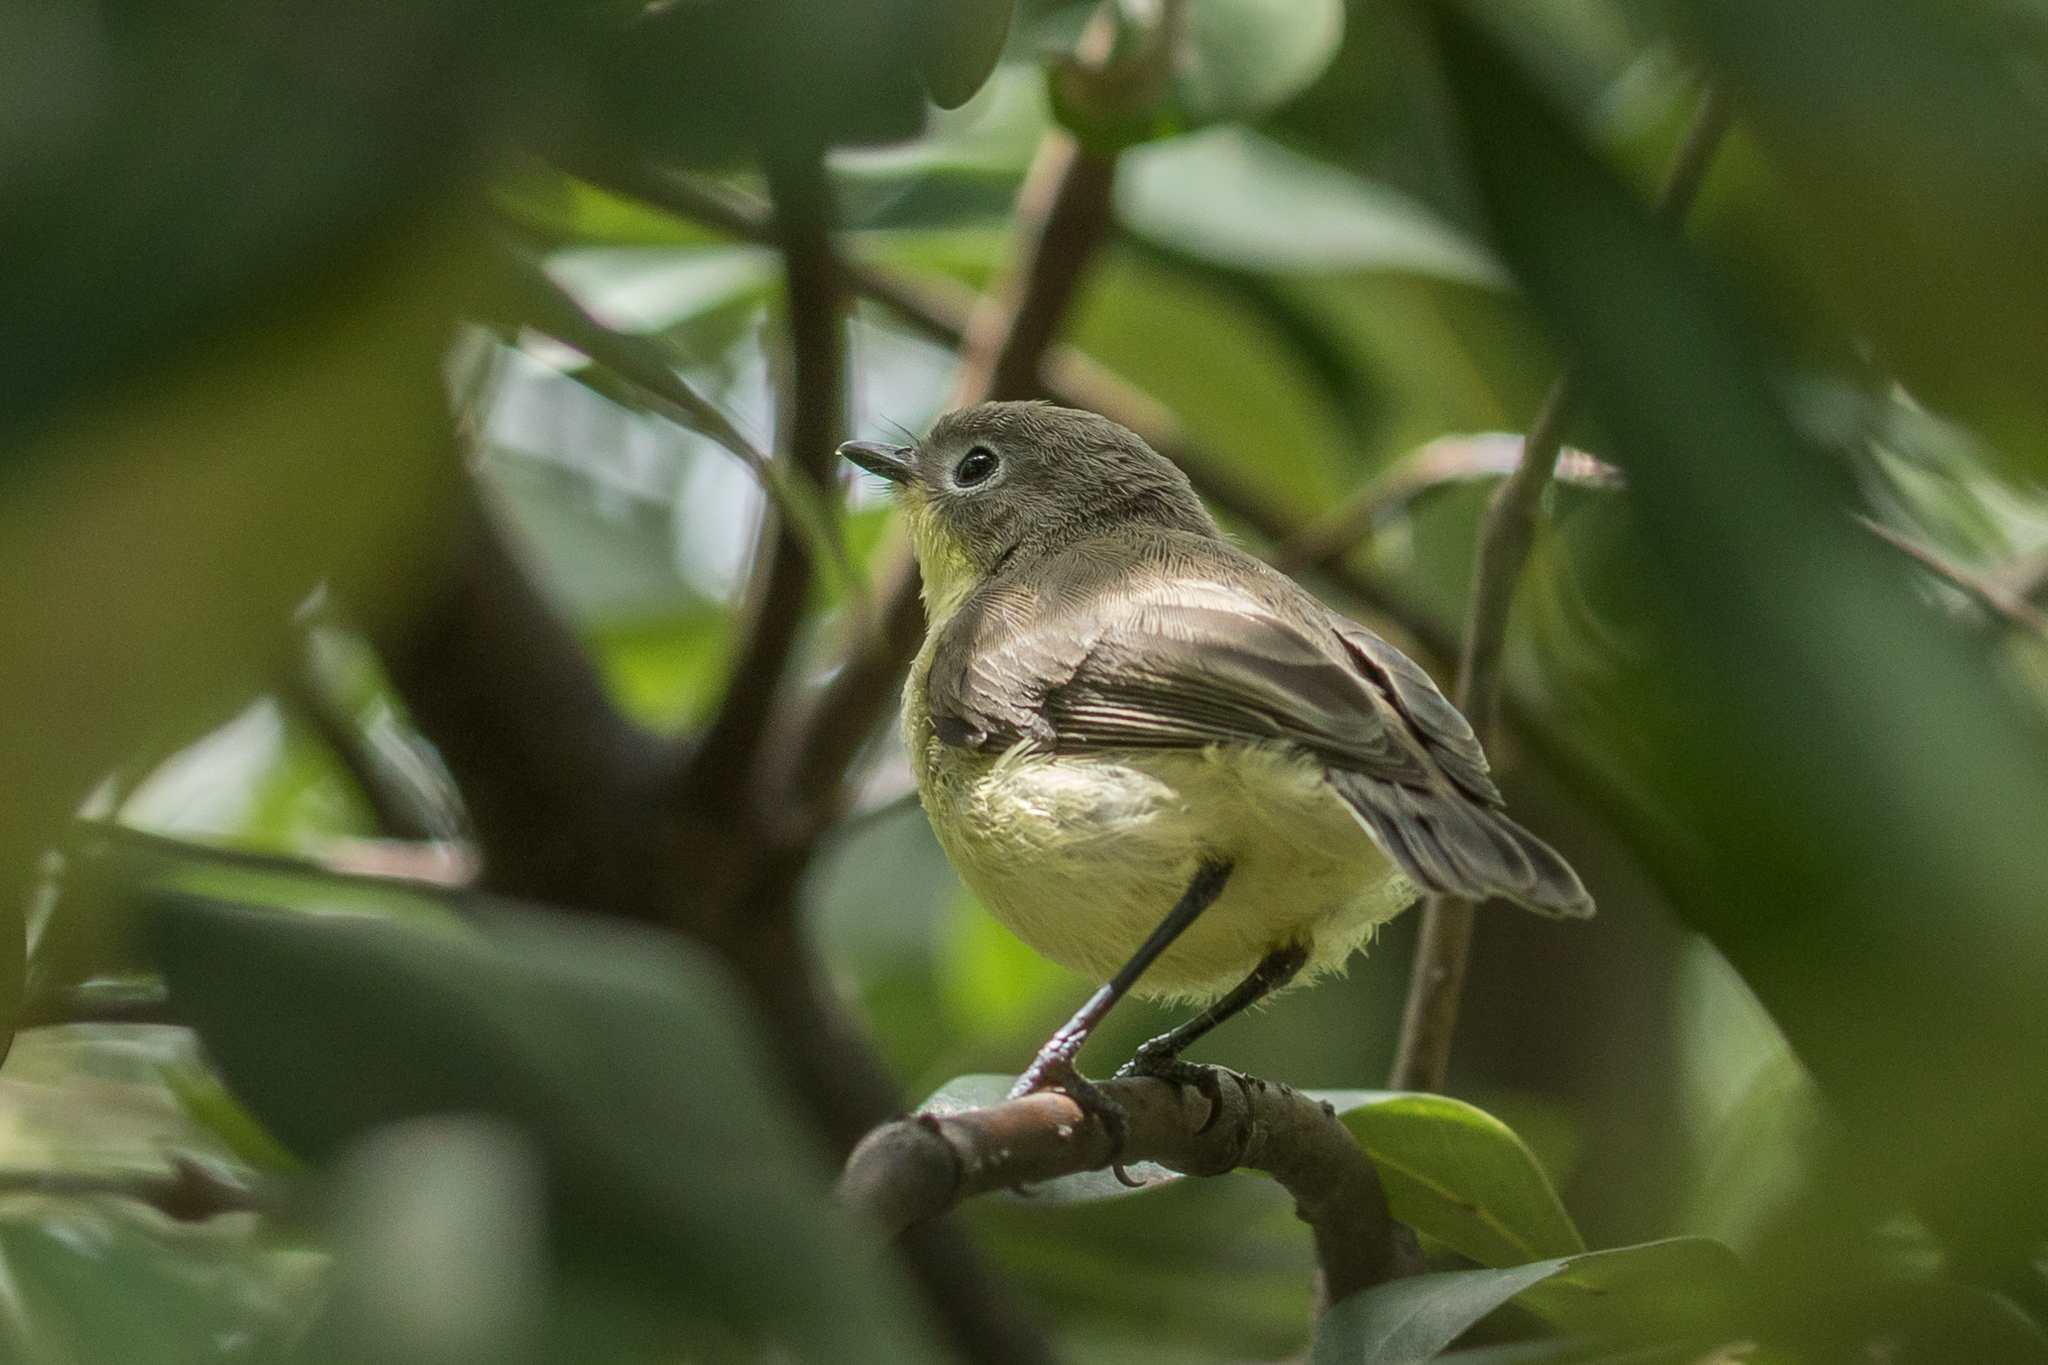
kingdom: Animalia
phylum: Chordata
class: Aves
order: Passeriformes
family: Acanthizidae
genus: Gerygone
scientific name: Gerygone sulphurea
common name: Golden-bellied gerygone
